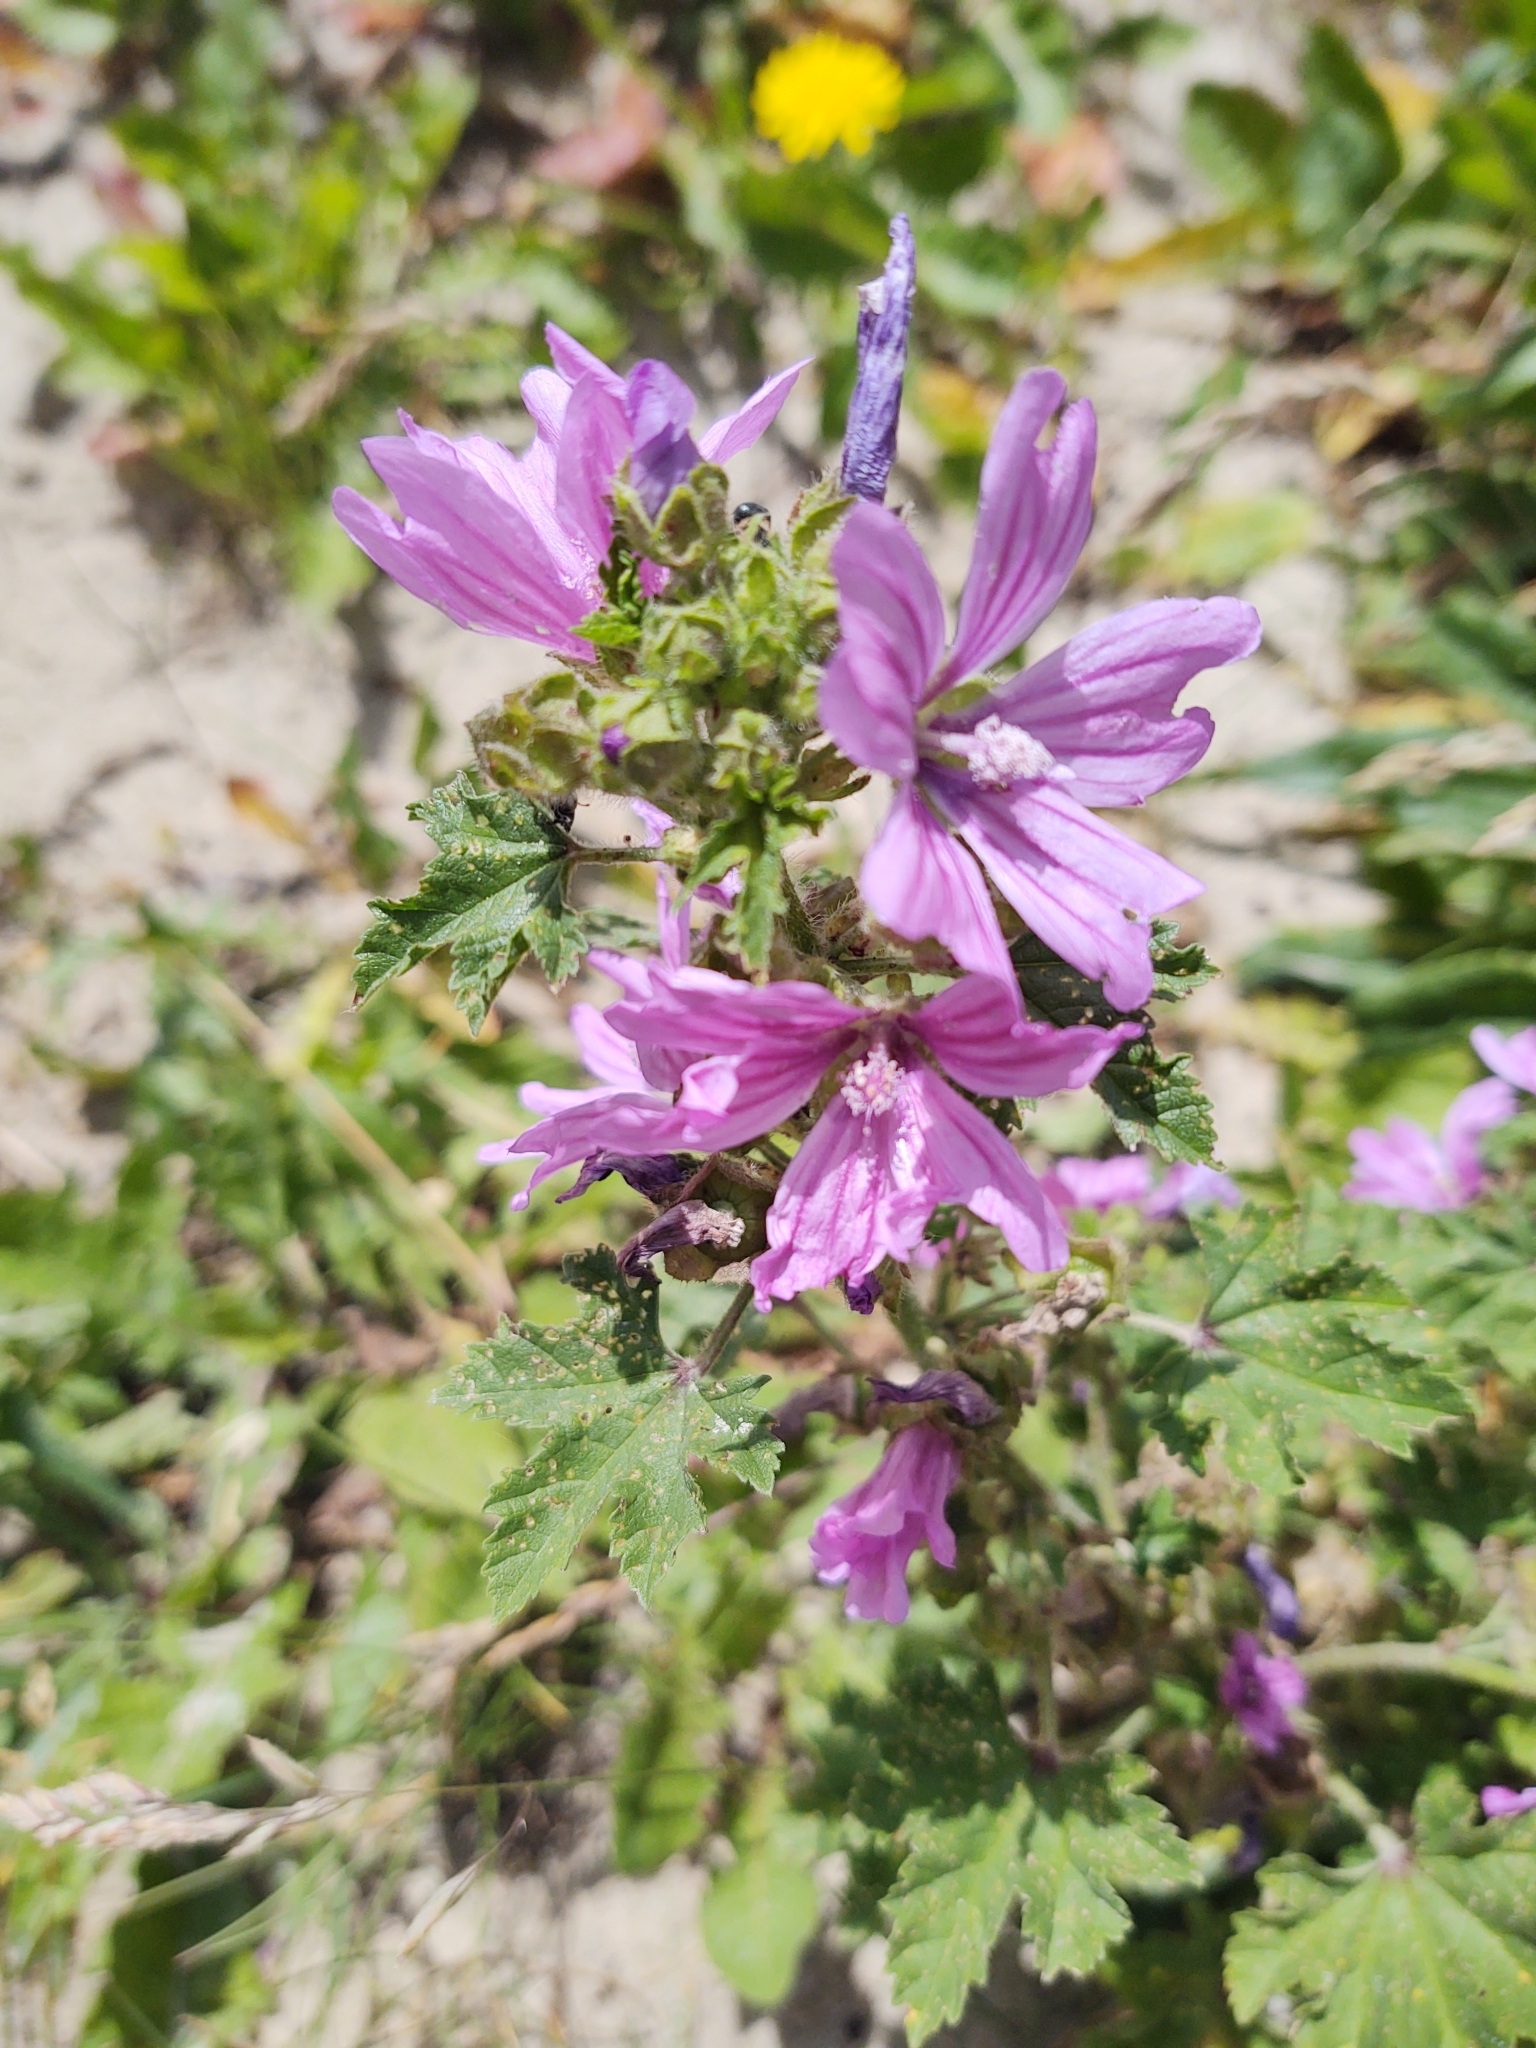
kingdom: Plantae
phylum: Tracheophyta
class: Magnoliopsida
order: Malvales
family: Malvaceae
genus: Malva
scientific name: Malva sylvestris
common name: Common mallow
